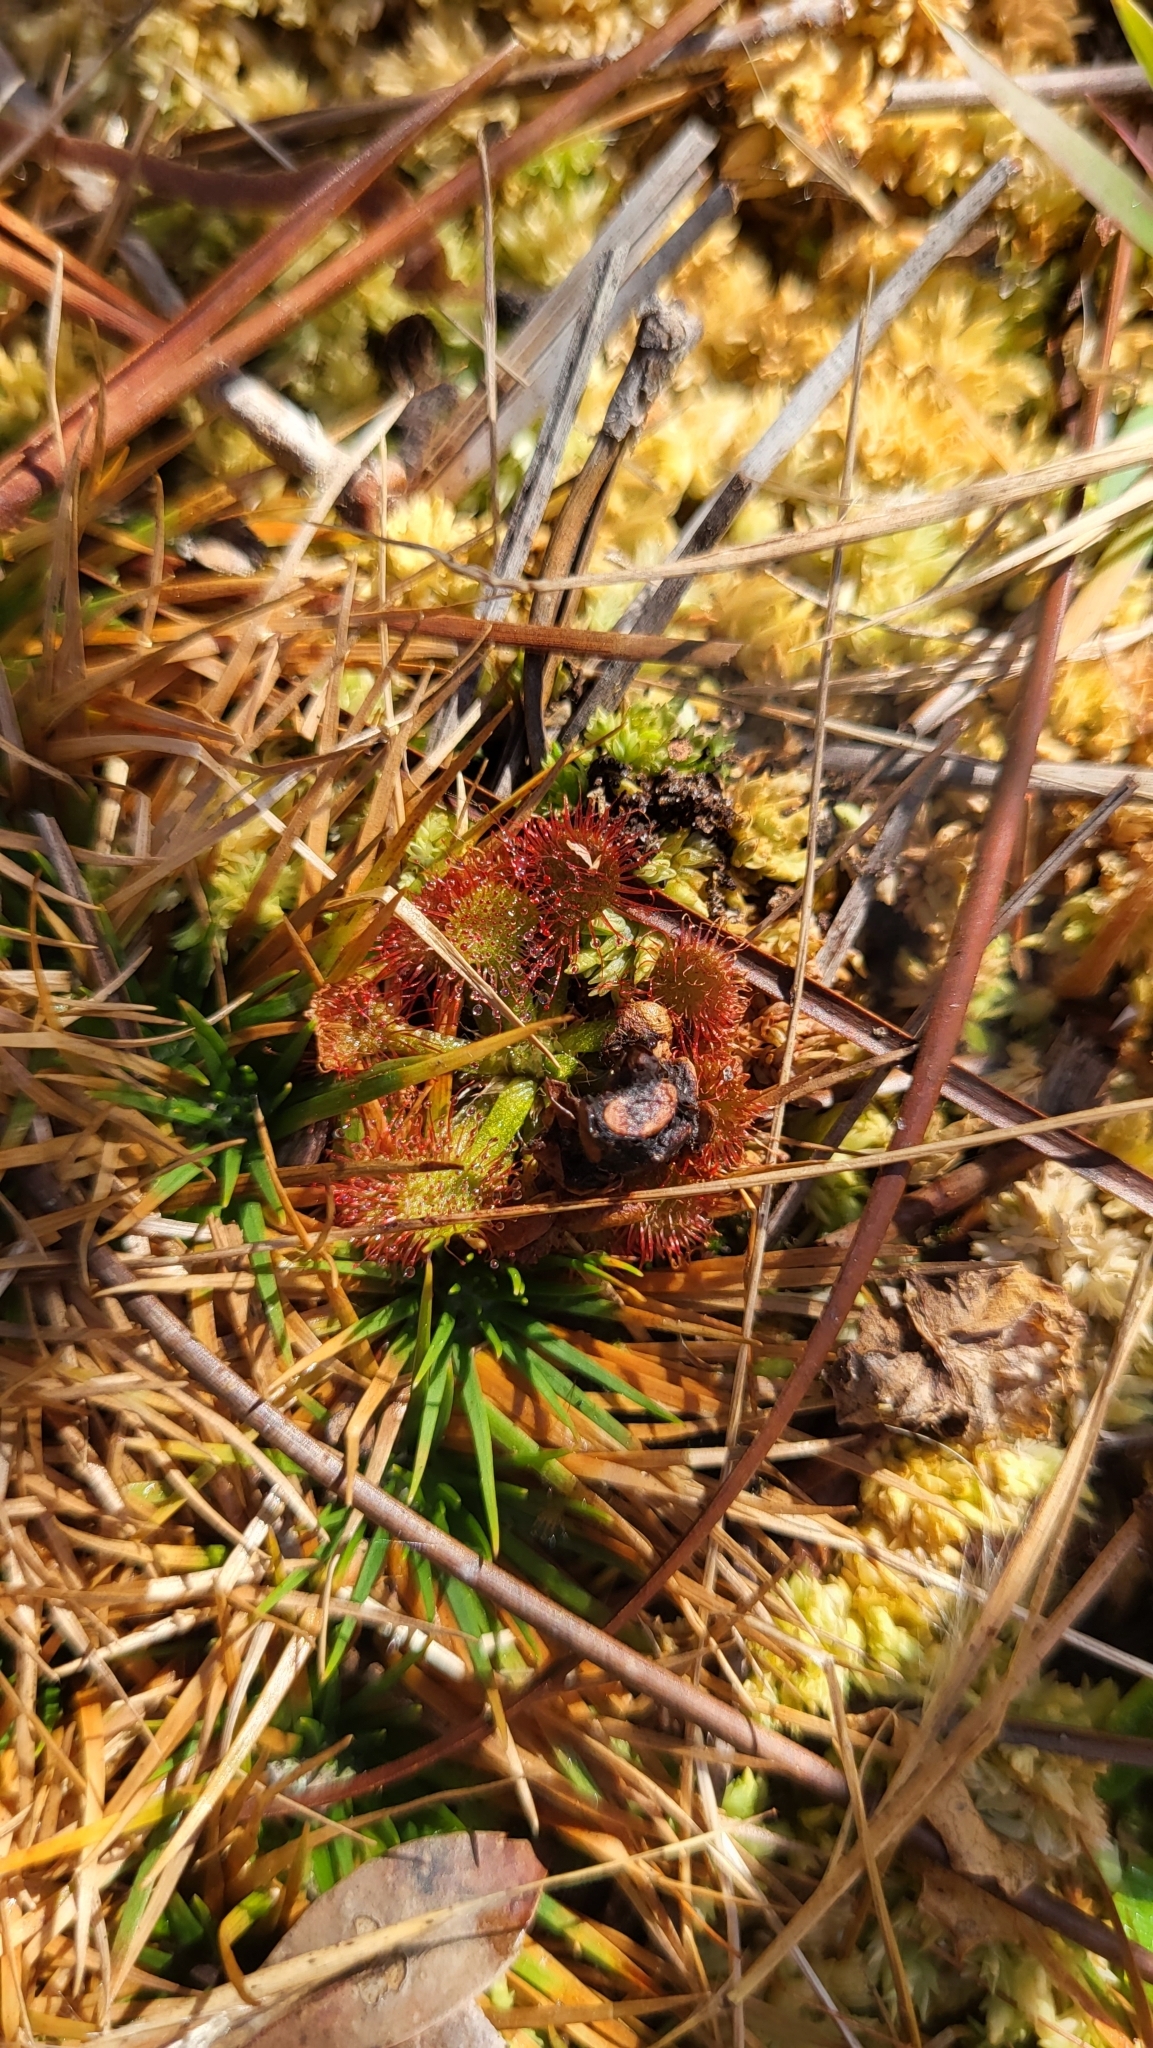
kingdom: Plantae
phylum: Tracheophyta
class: Magnoliopsida
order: Caryophyllales
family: Droseraceae
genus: Drosera
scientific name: Drosera capillaris
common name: Pink sundew
